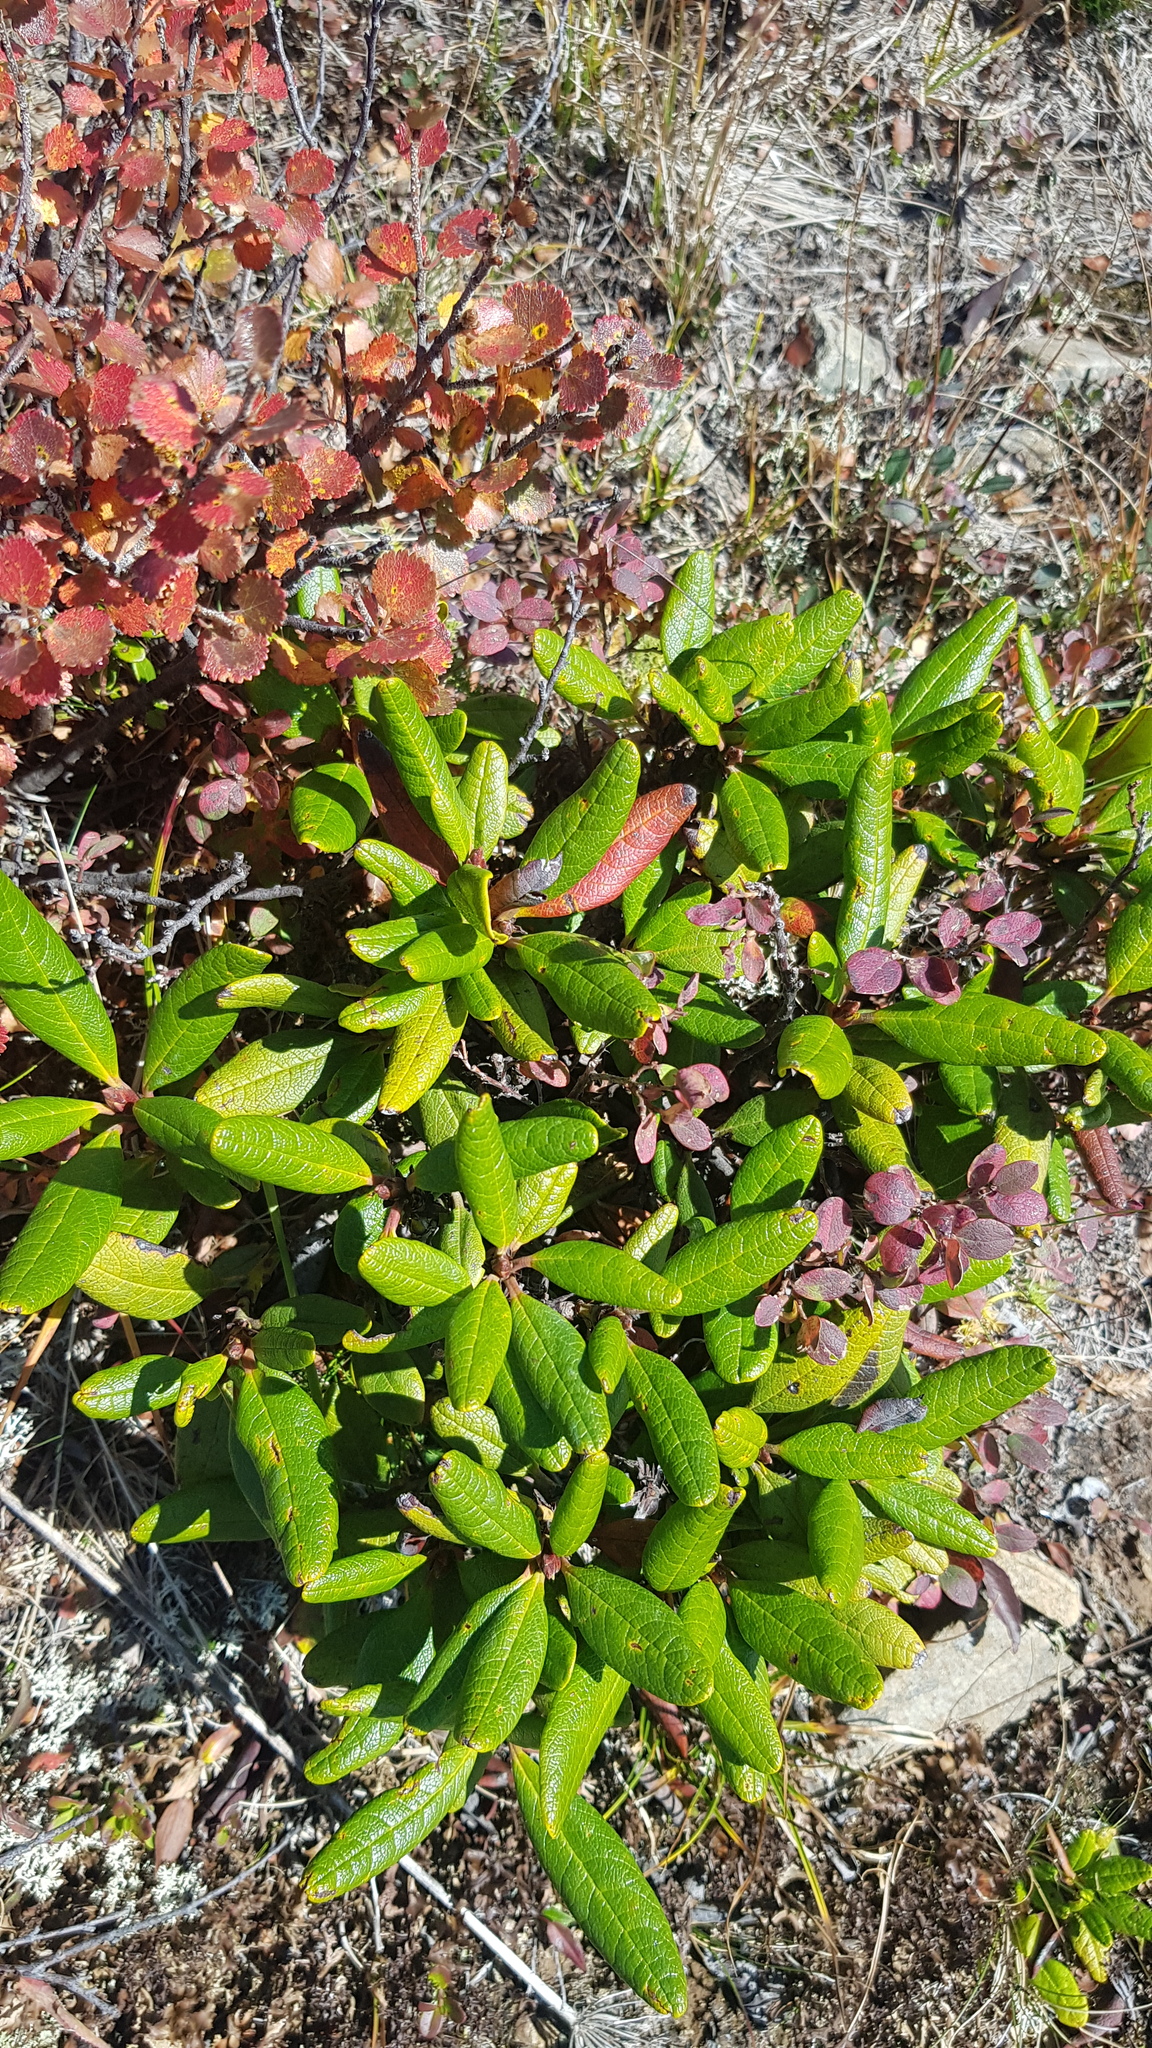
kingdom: Plantae
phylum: Tracheophyta
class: Magnoliopsida
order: Ericales
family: Ericaceae
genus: Rhododendron
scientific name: Rhododendron aureum
